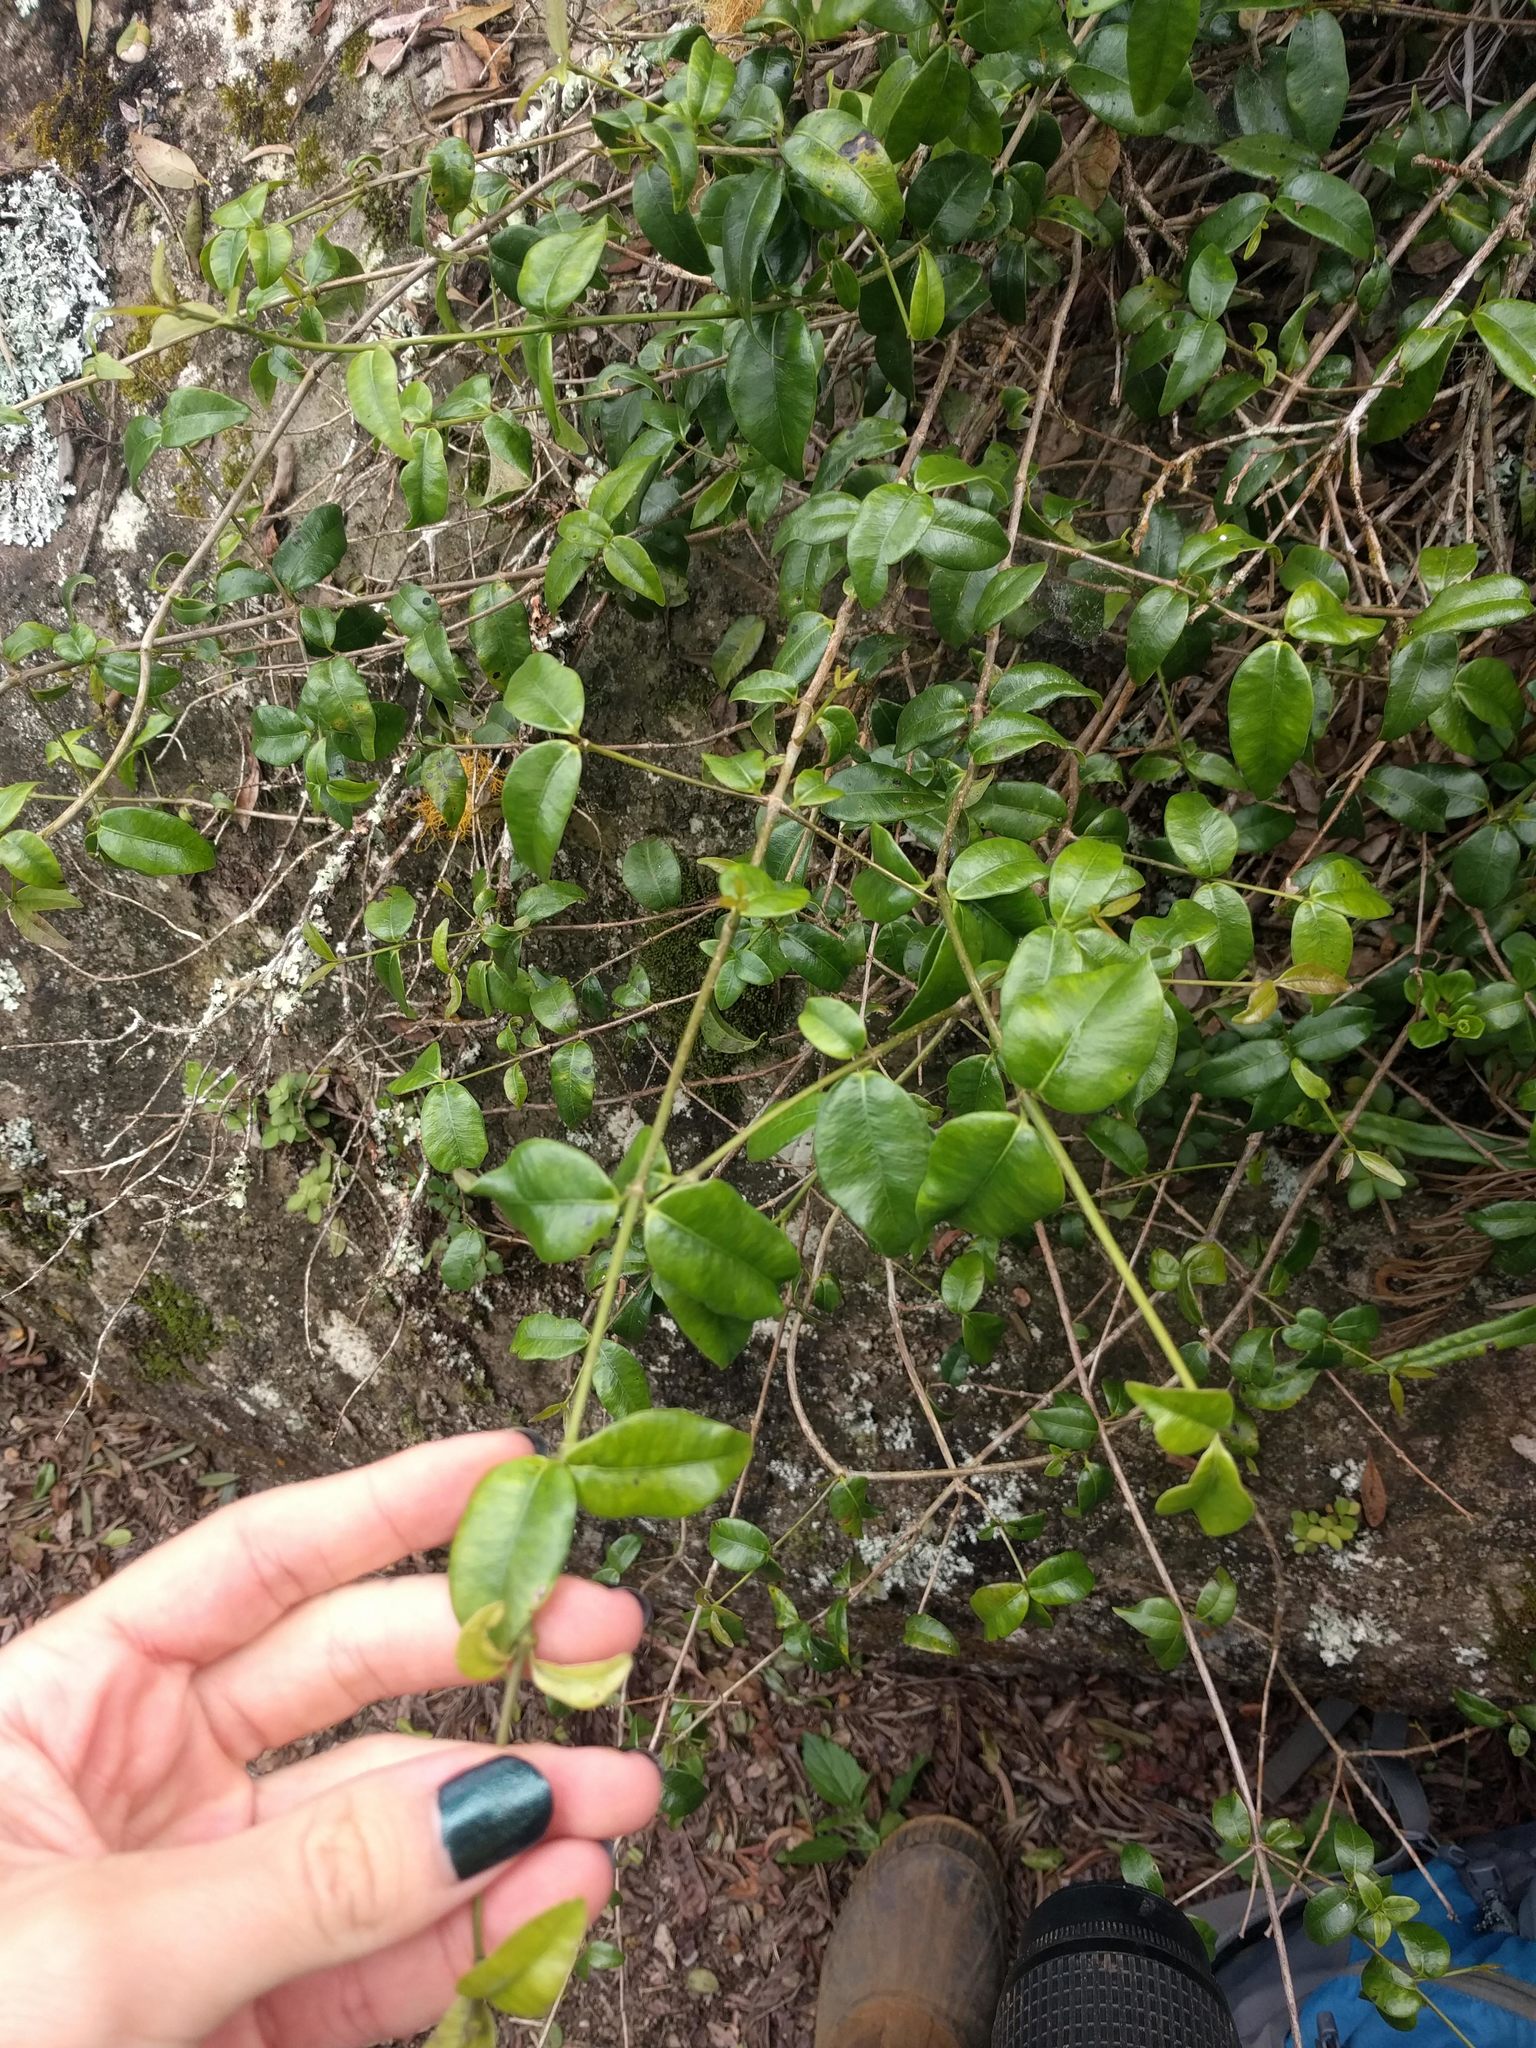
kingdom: Plantae
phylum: Tracheophyta
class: Magnoliopsida
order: Gentianales
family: Apocynaceae
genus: Alyxia
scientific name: Alyxia stellata
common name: Maile
